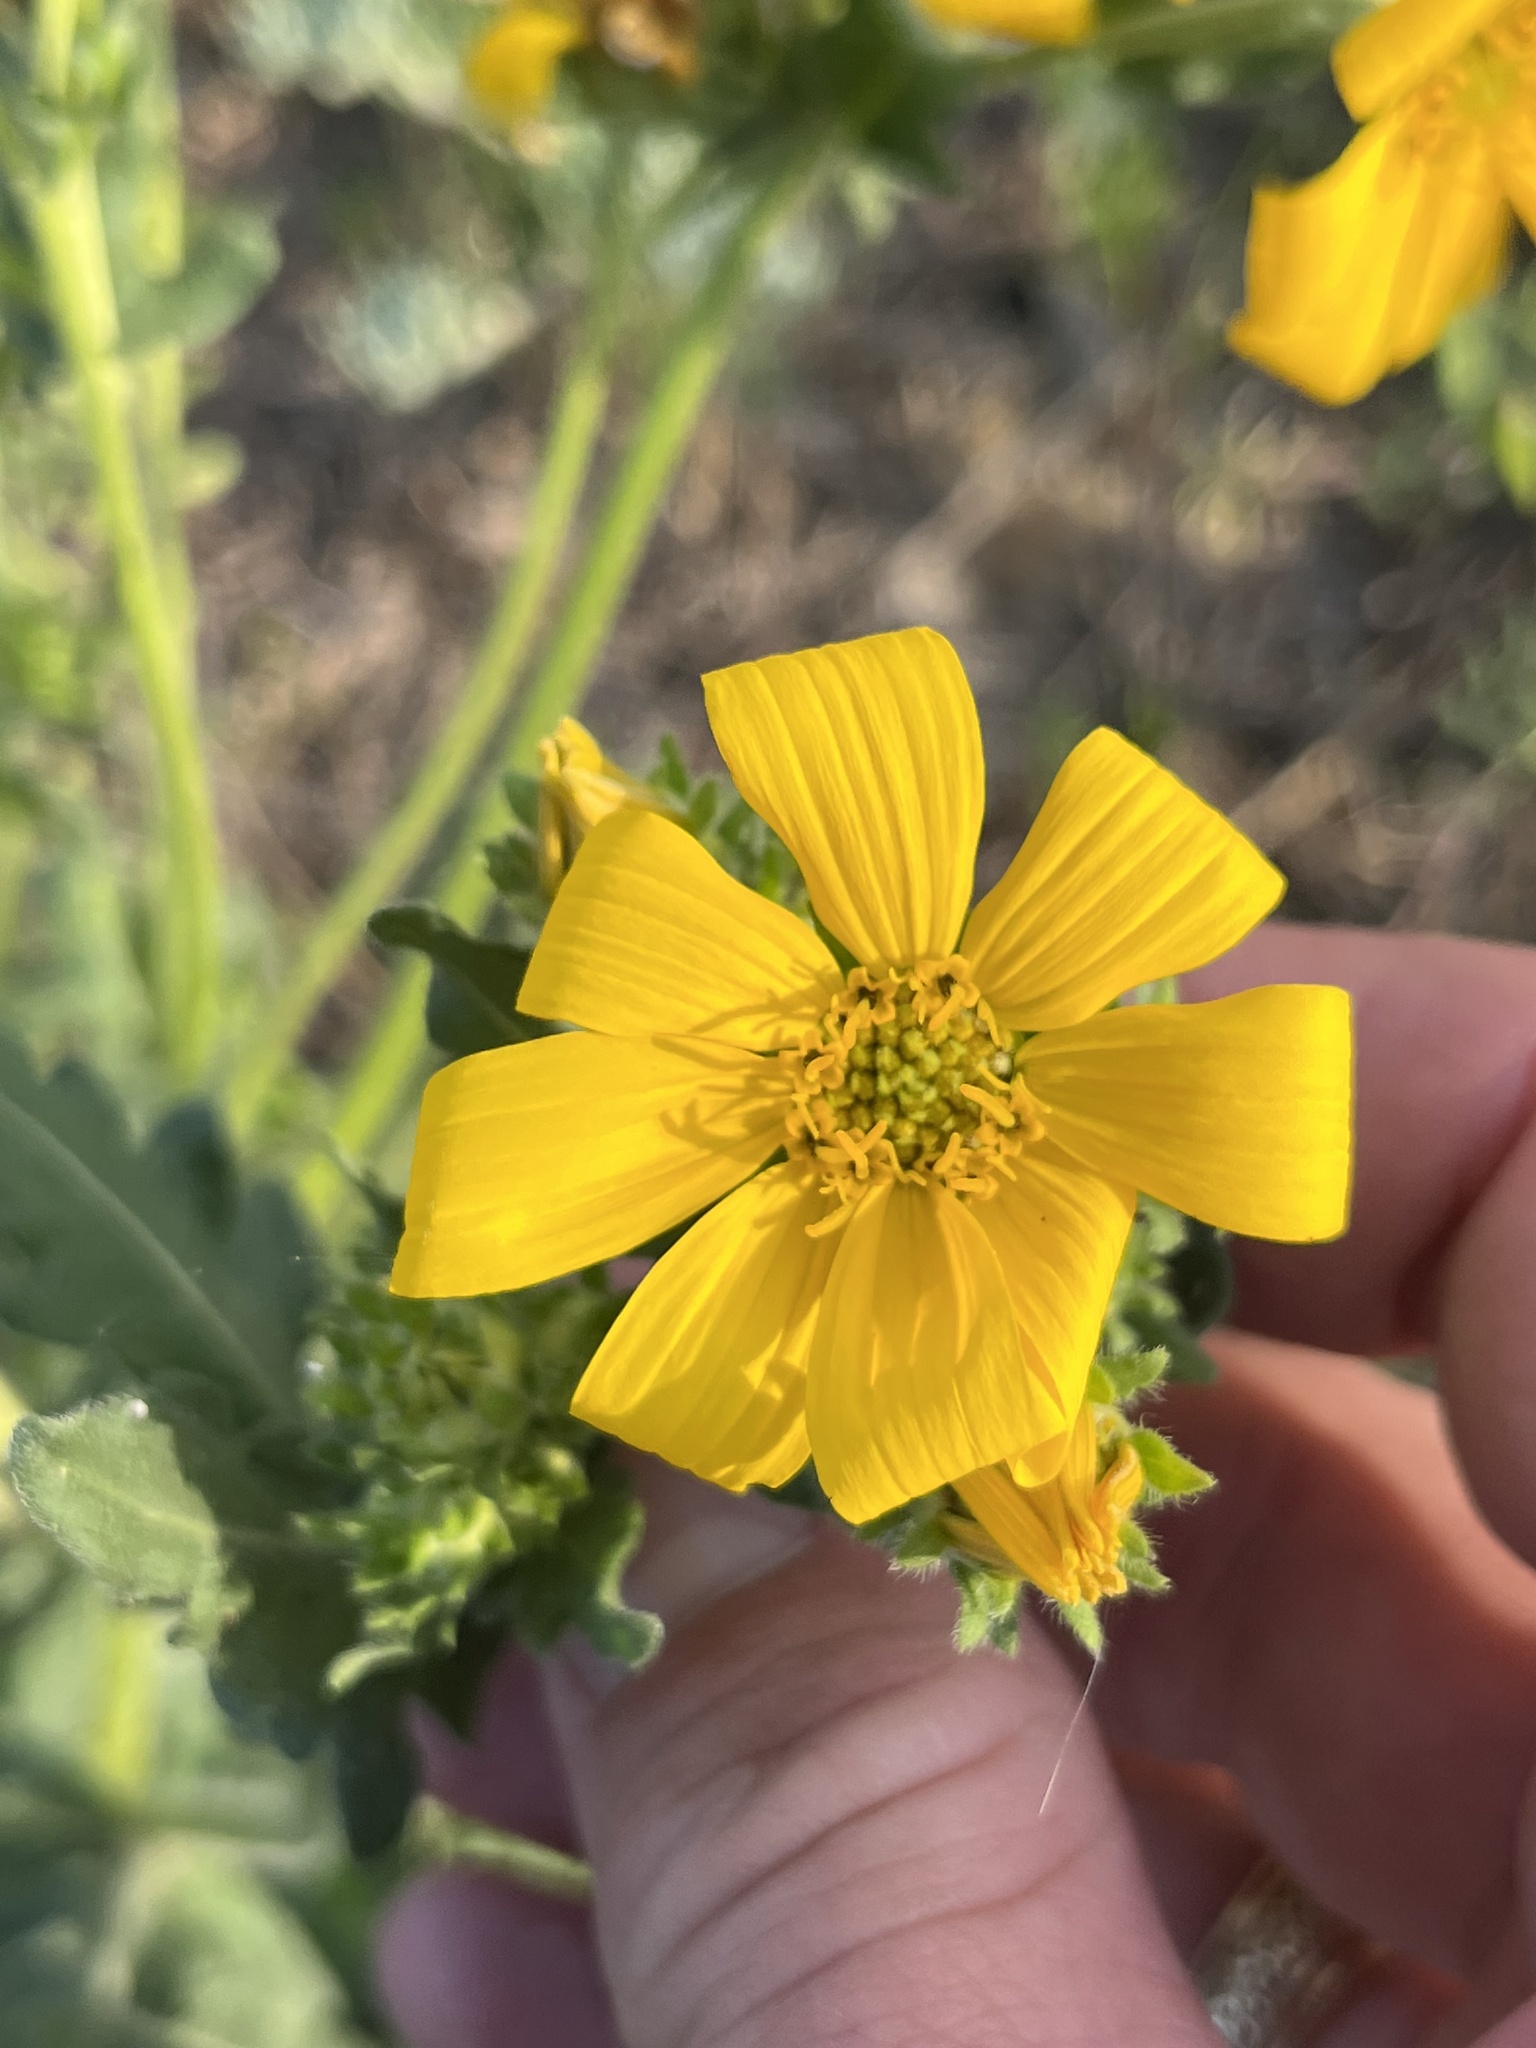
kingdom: Plantae
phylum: Tracheophyta
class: Magnoliopsida
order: Asterales
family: Asteraceae
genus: Engelmannia
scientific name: Engelmannia peristenia
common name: Engelmann's daisy
